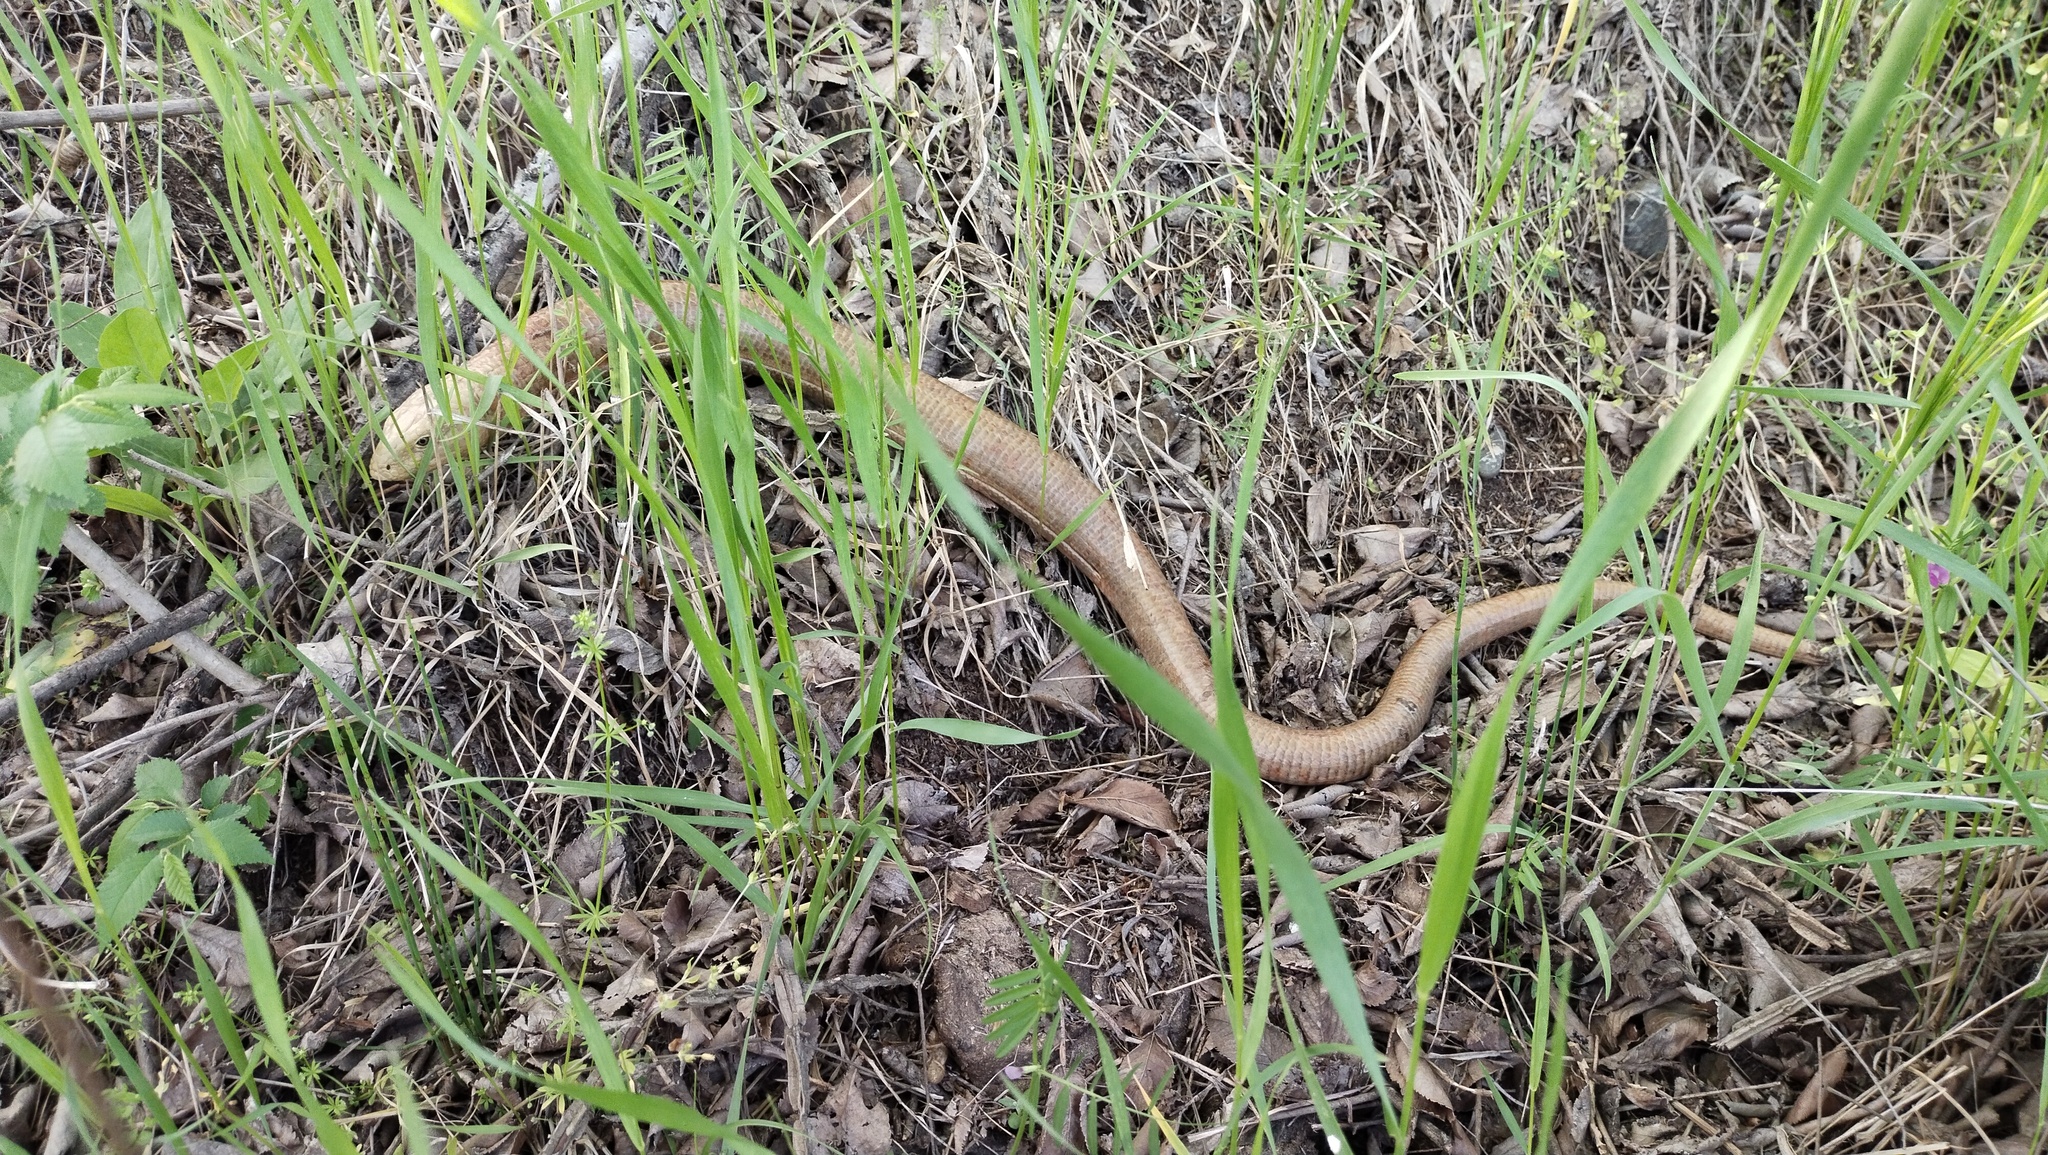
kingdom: Animalia
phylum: Chordata
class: Squamata
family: Anguidae
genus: Pseudopus
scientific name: Pseudopus apodus
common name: European glass lizard
